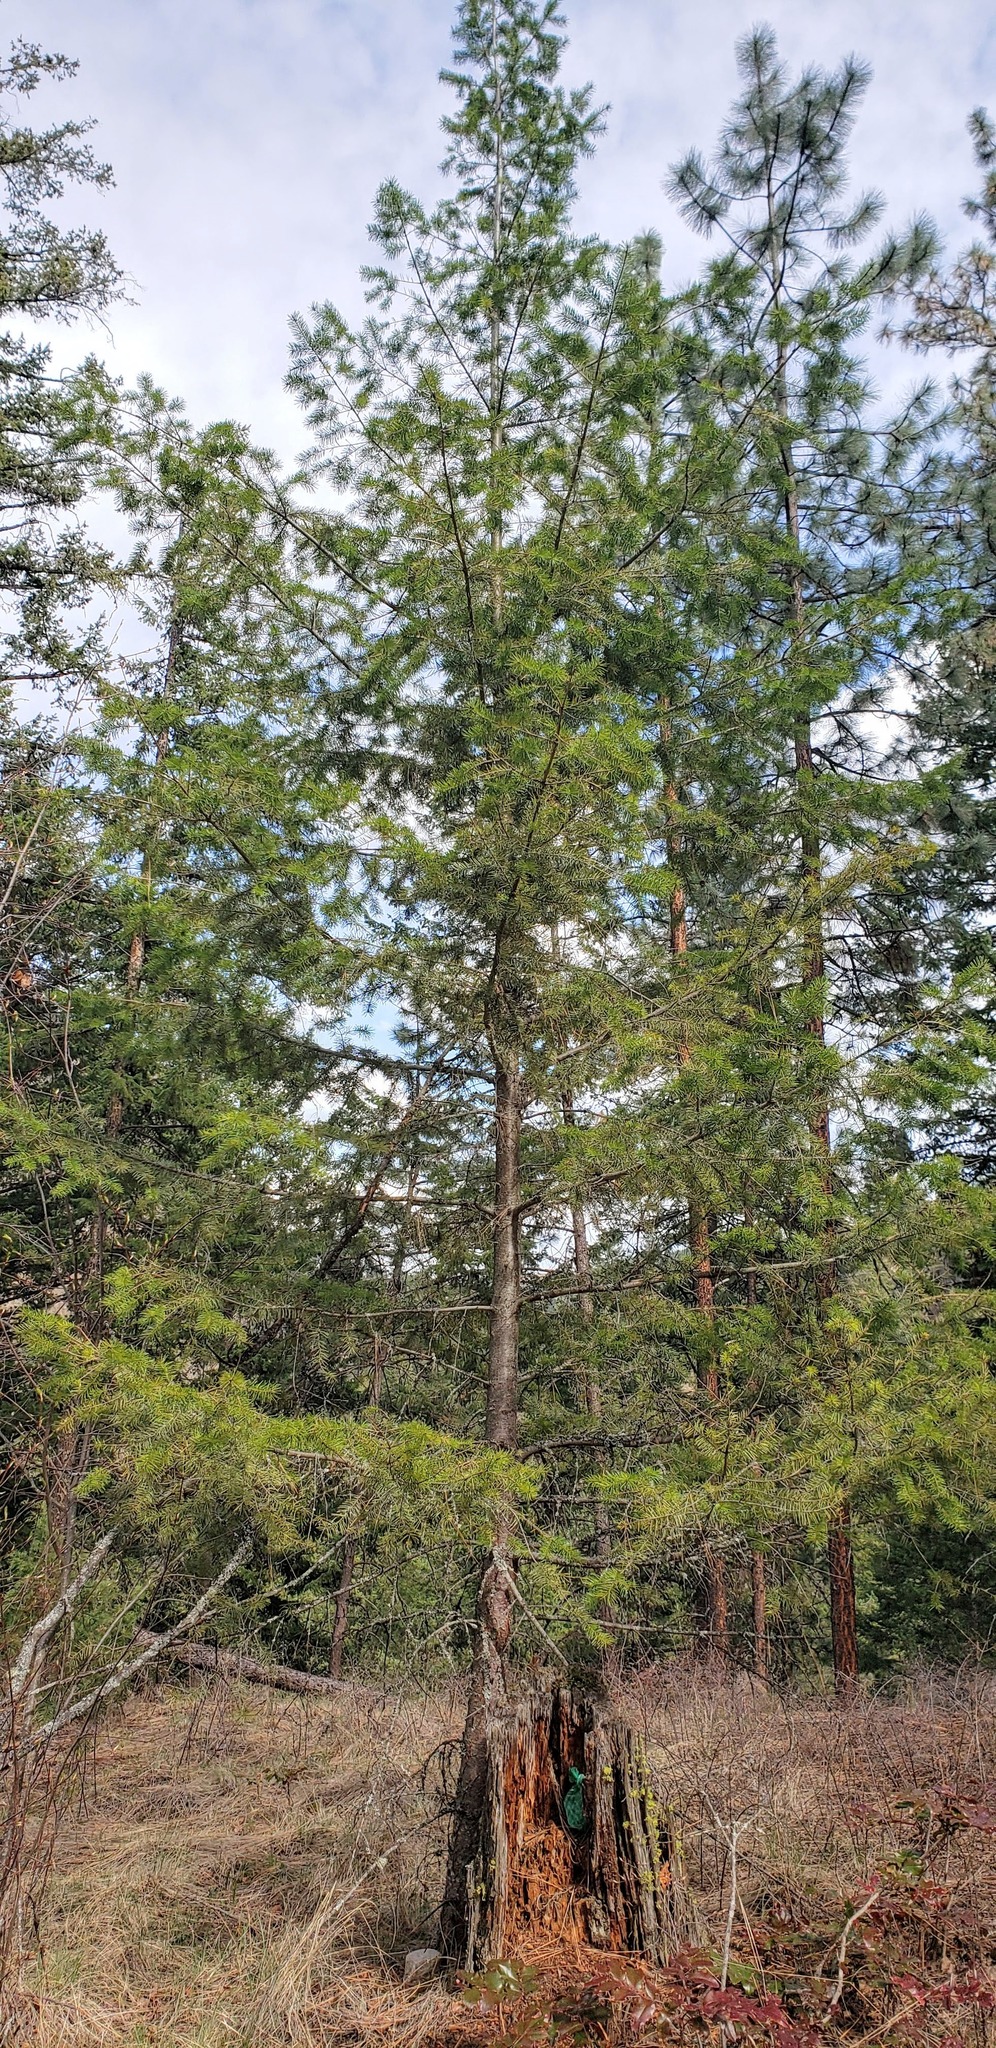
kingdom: Plantae
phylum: Tracheophyta
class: Pinopsida
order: Pinales
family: Pinaceae
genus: Pseudotsuga
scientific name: Pseudotsuga menziesii
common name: Douglas fir
